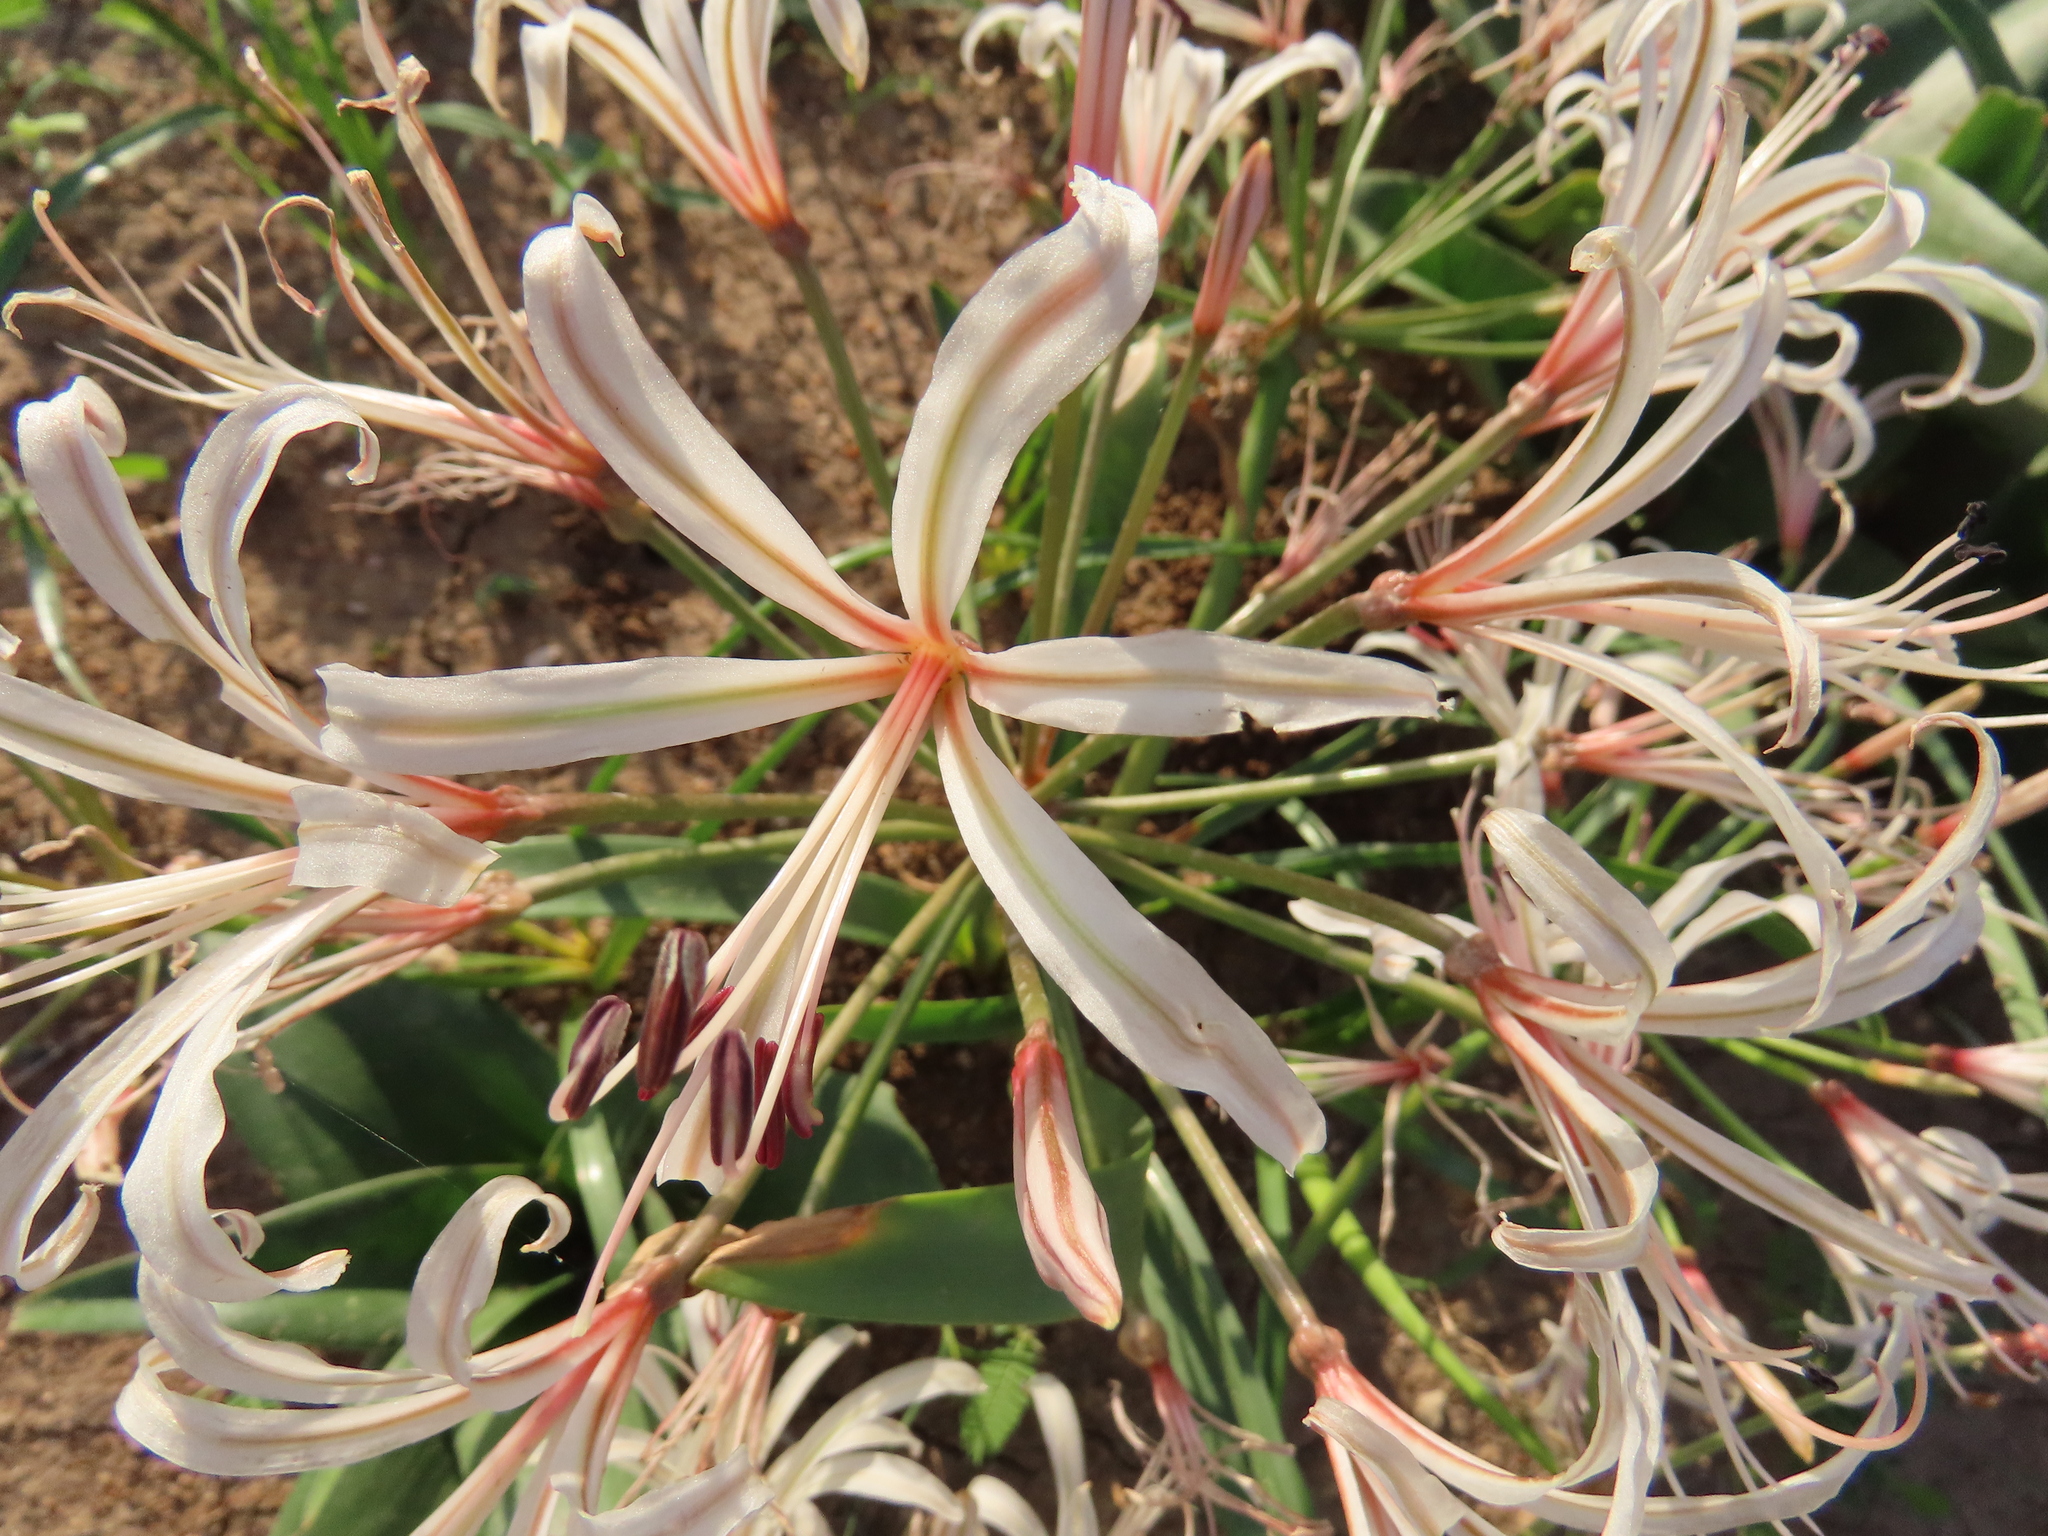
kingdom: Plantae
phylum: Tracheophyta
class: Liliopsida
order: Asparagales
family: Amaryllidaceae
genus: Nerine
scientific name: Nerine laticoma
